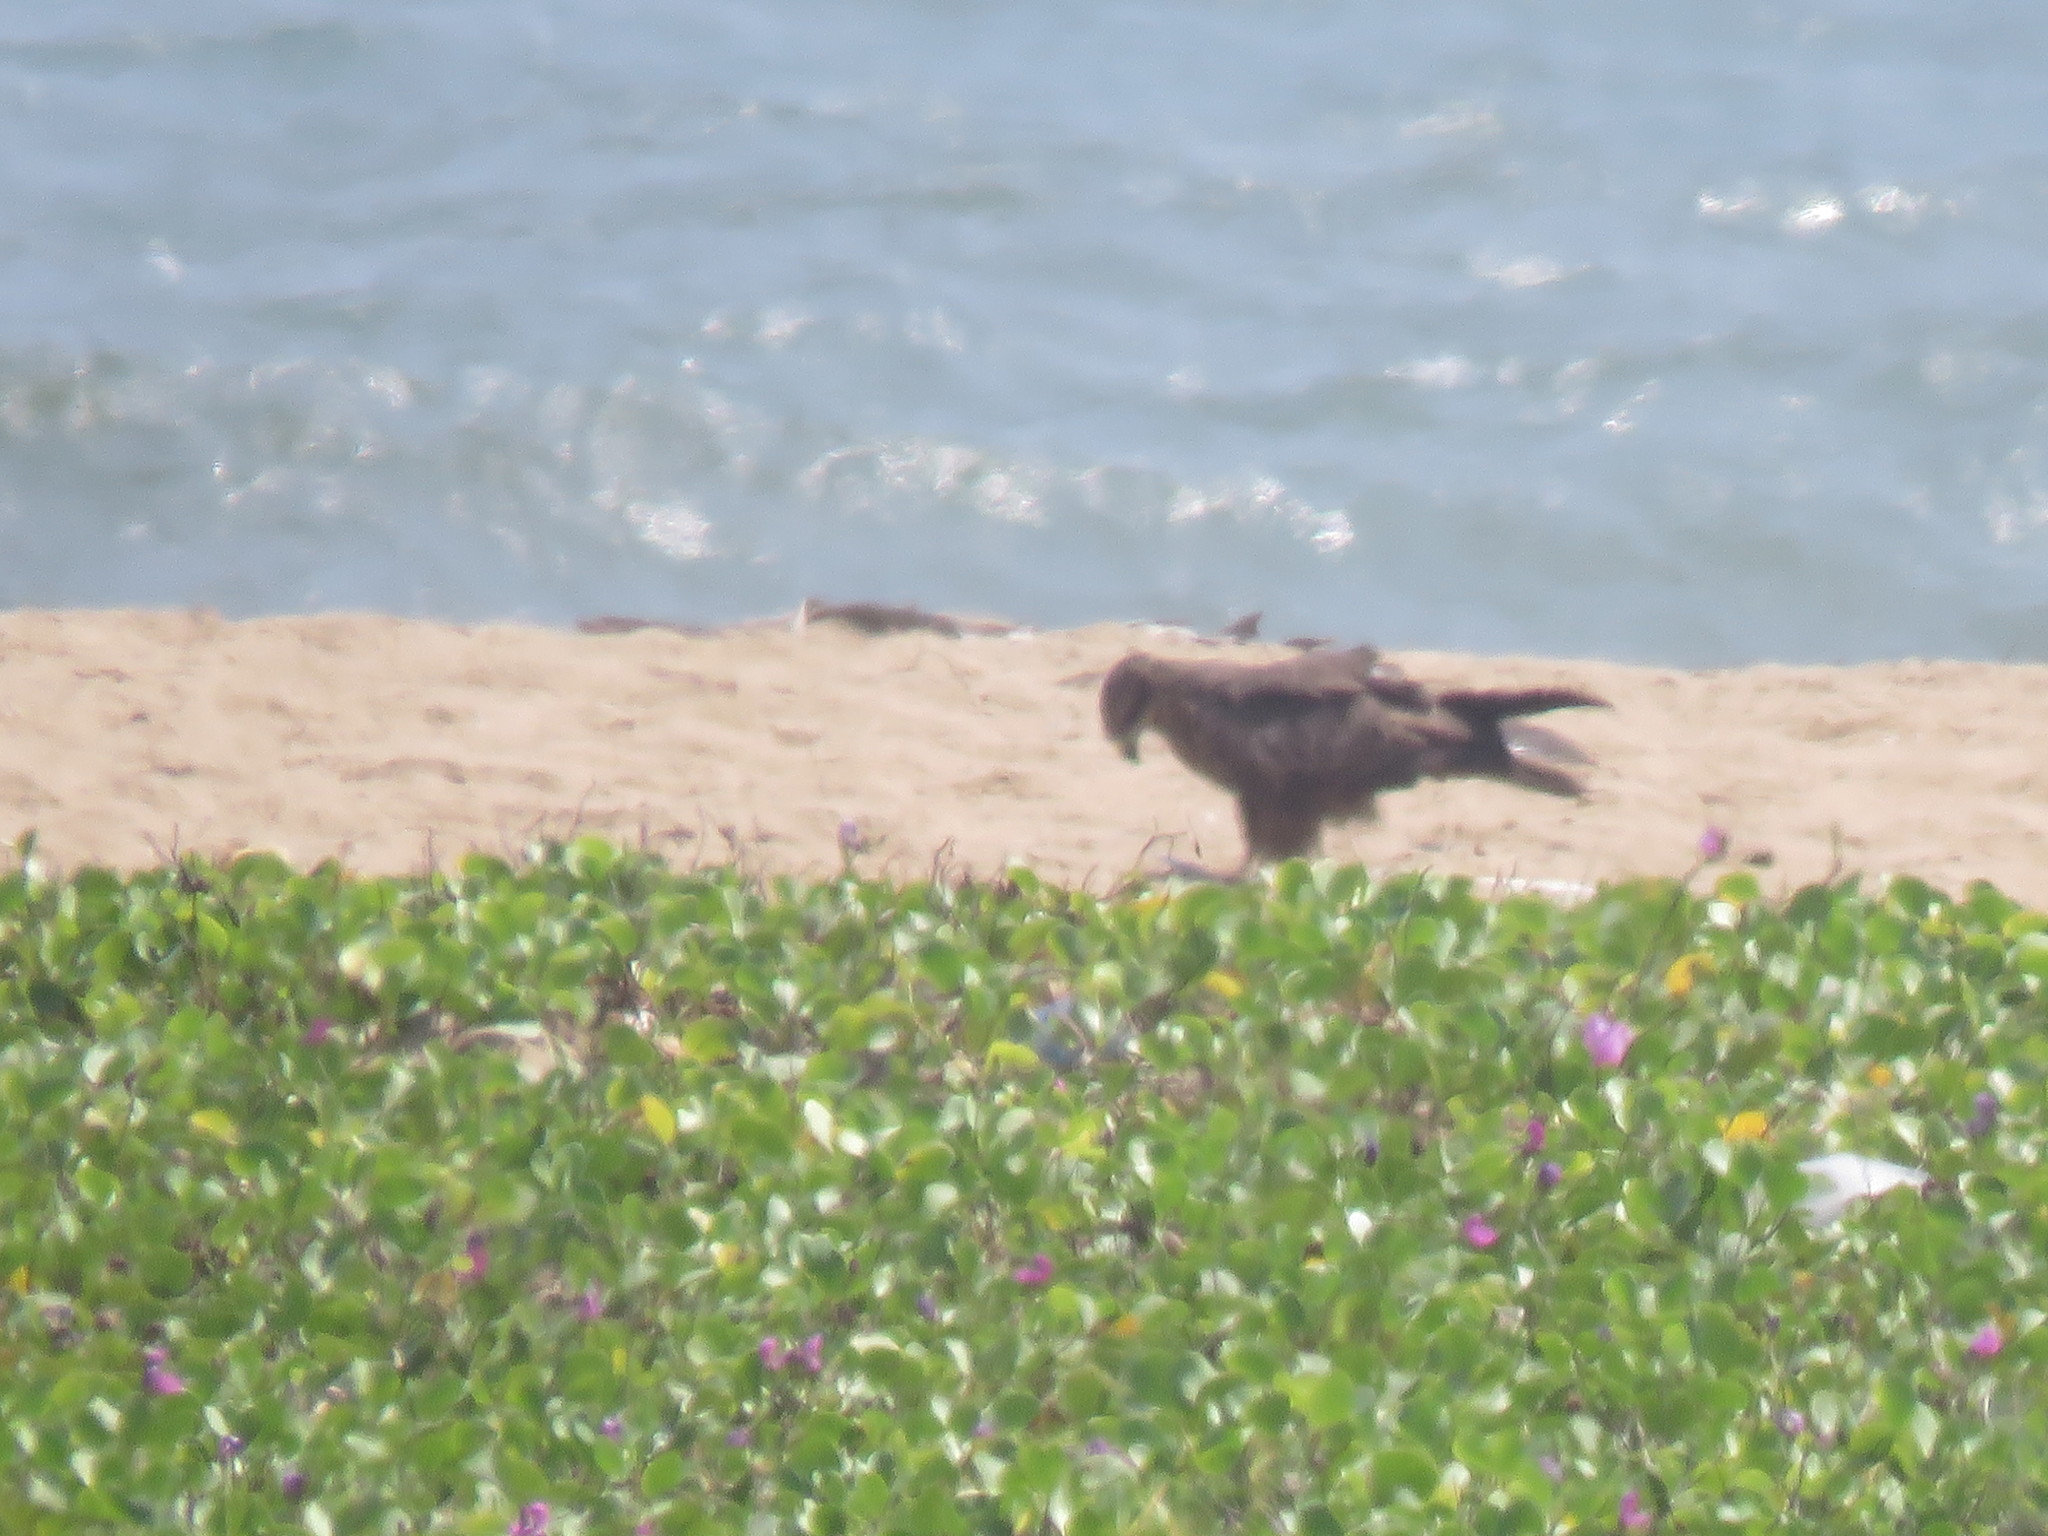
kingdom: Animalia
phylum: Chordata
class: Aves
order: Accipitriformes
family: Accipitridae
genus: Milvus
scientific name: Milvus migrans
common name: Black kite
